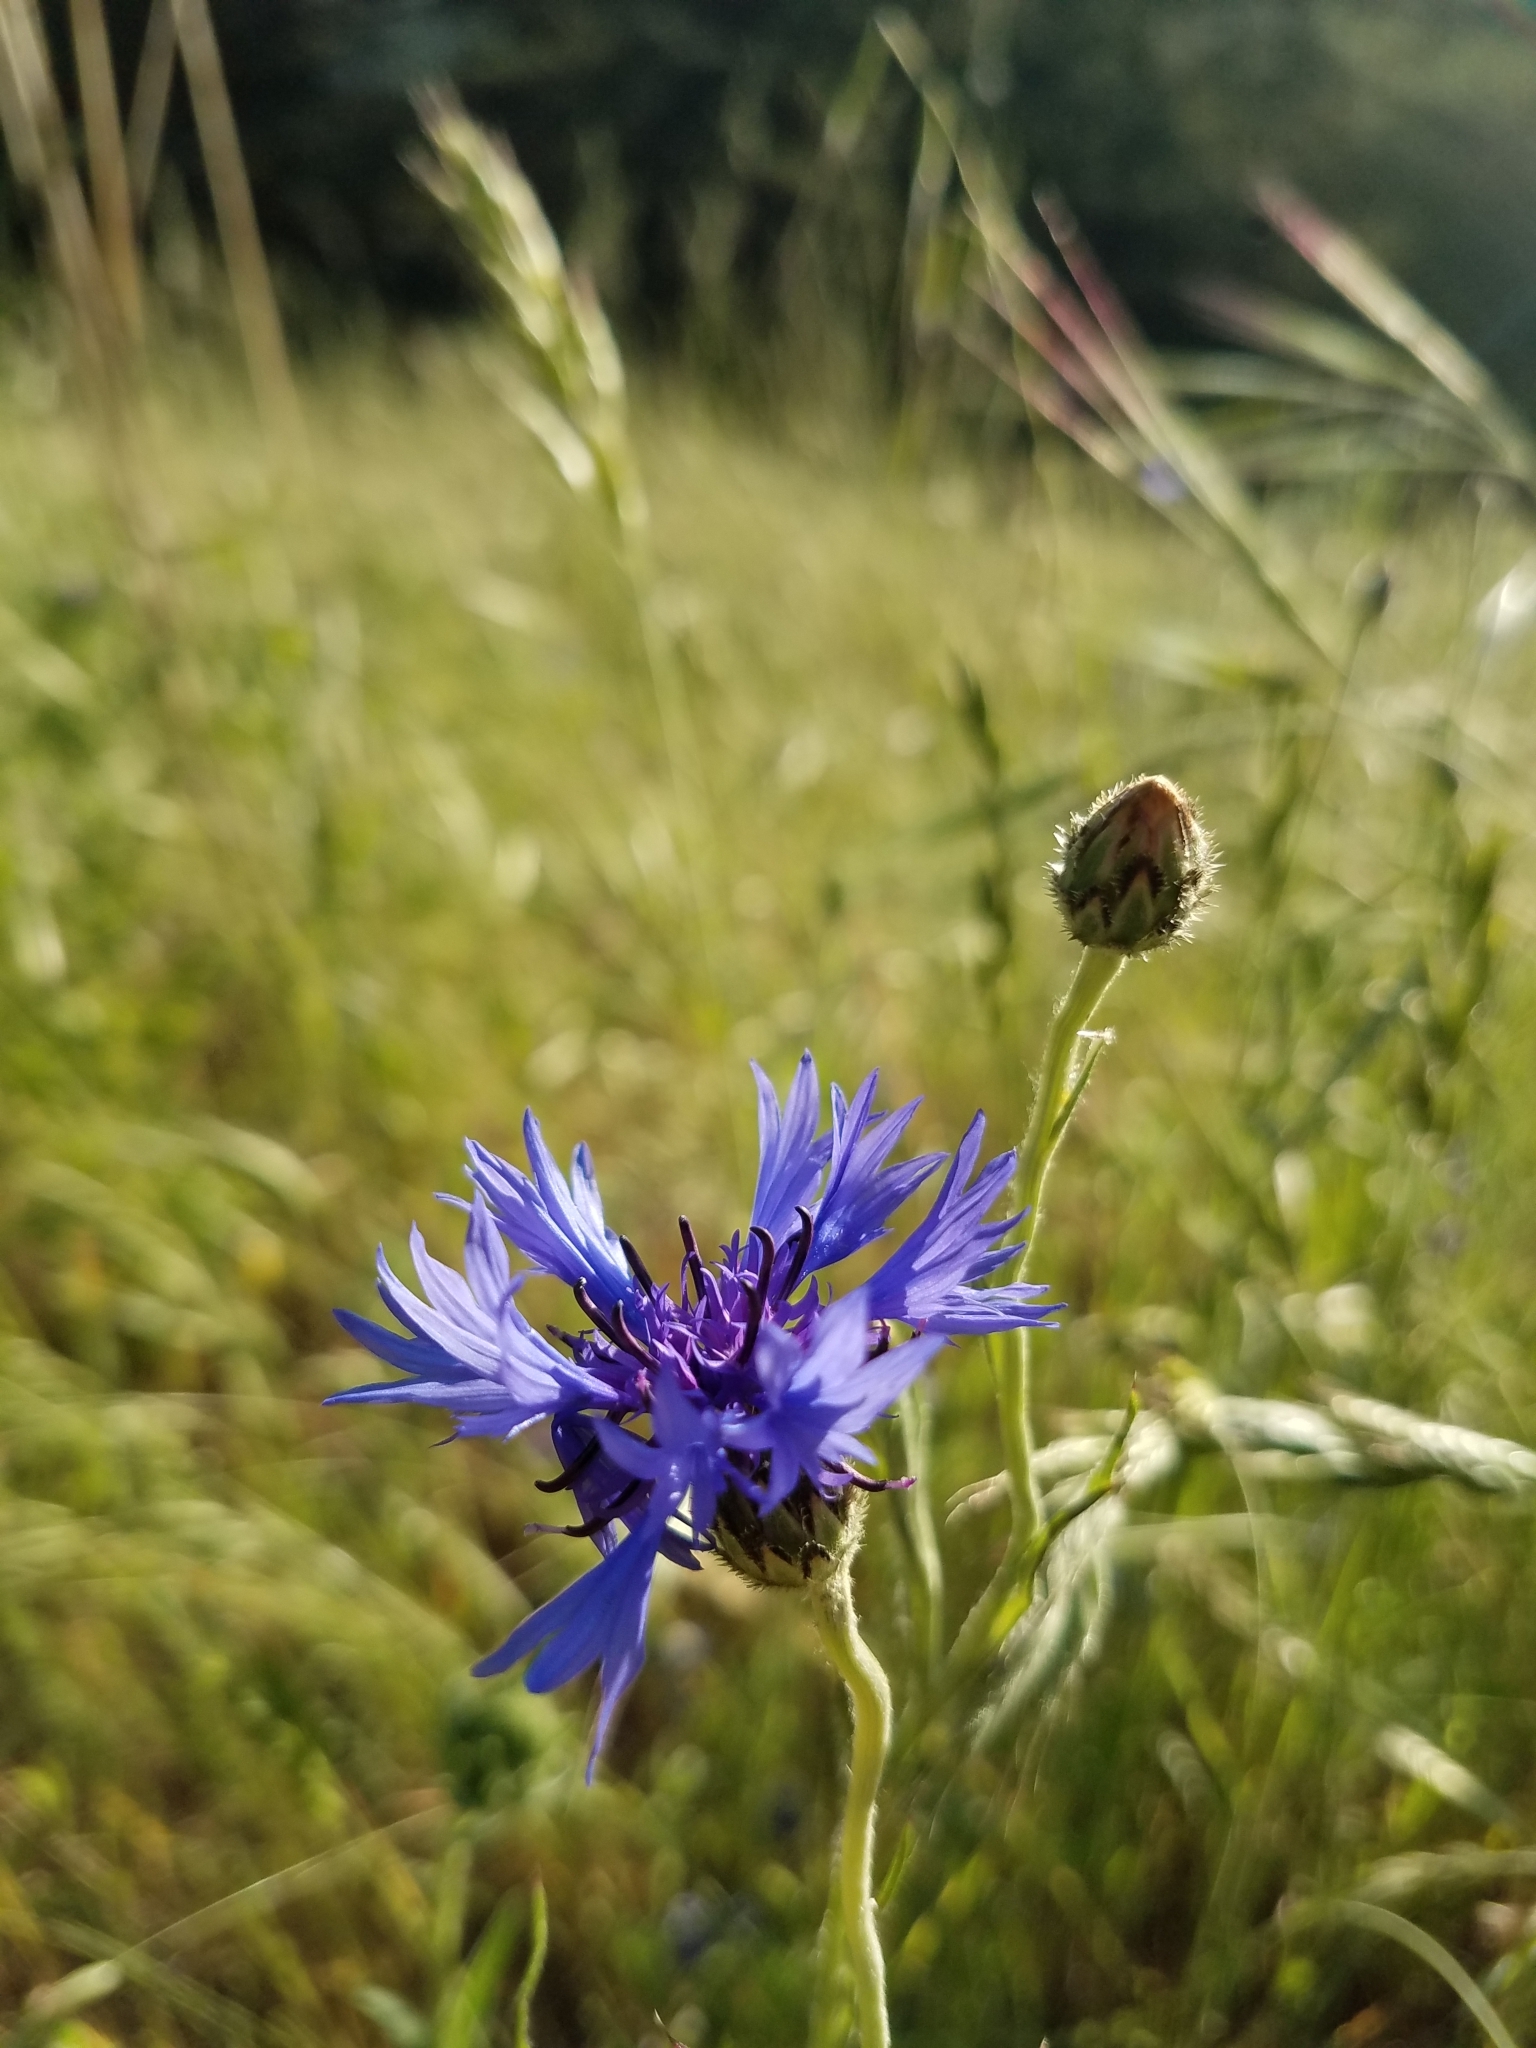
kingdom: Plantae
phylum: Tracheophyta
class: Magnoliopsida
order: Asterales
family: Asteraceae
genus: Centaurea
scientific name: Centaurea cyanus
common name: Cornflower
